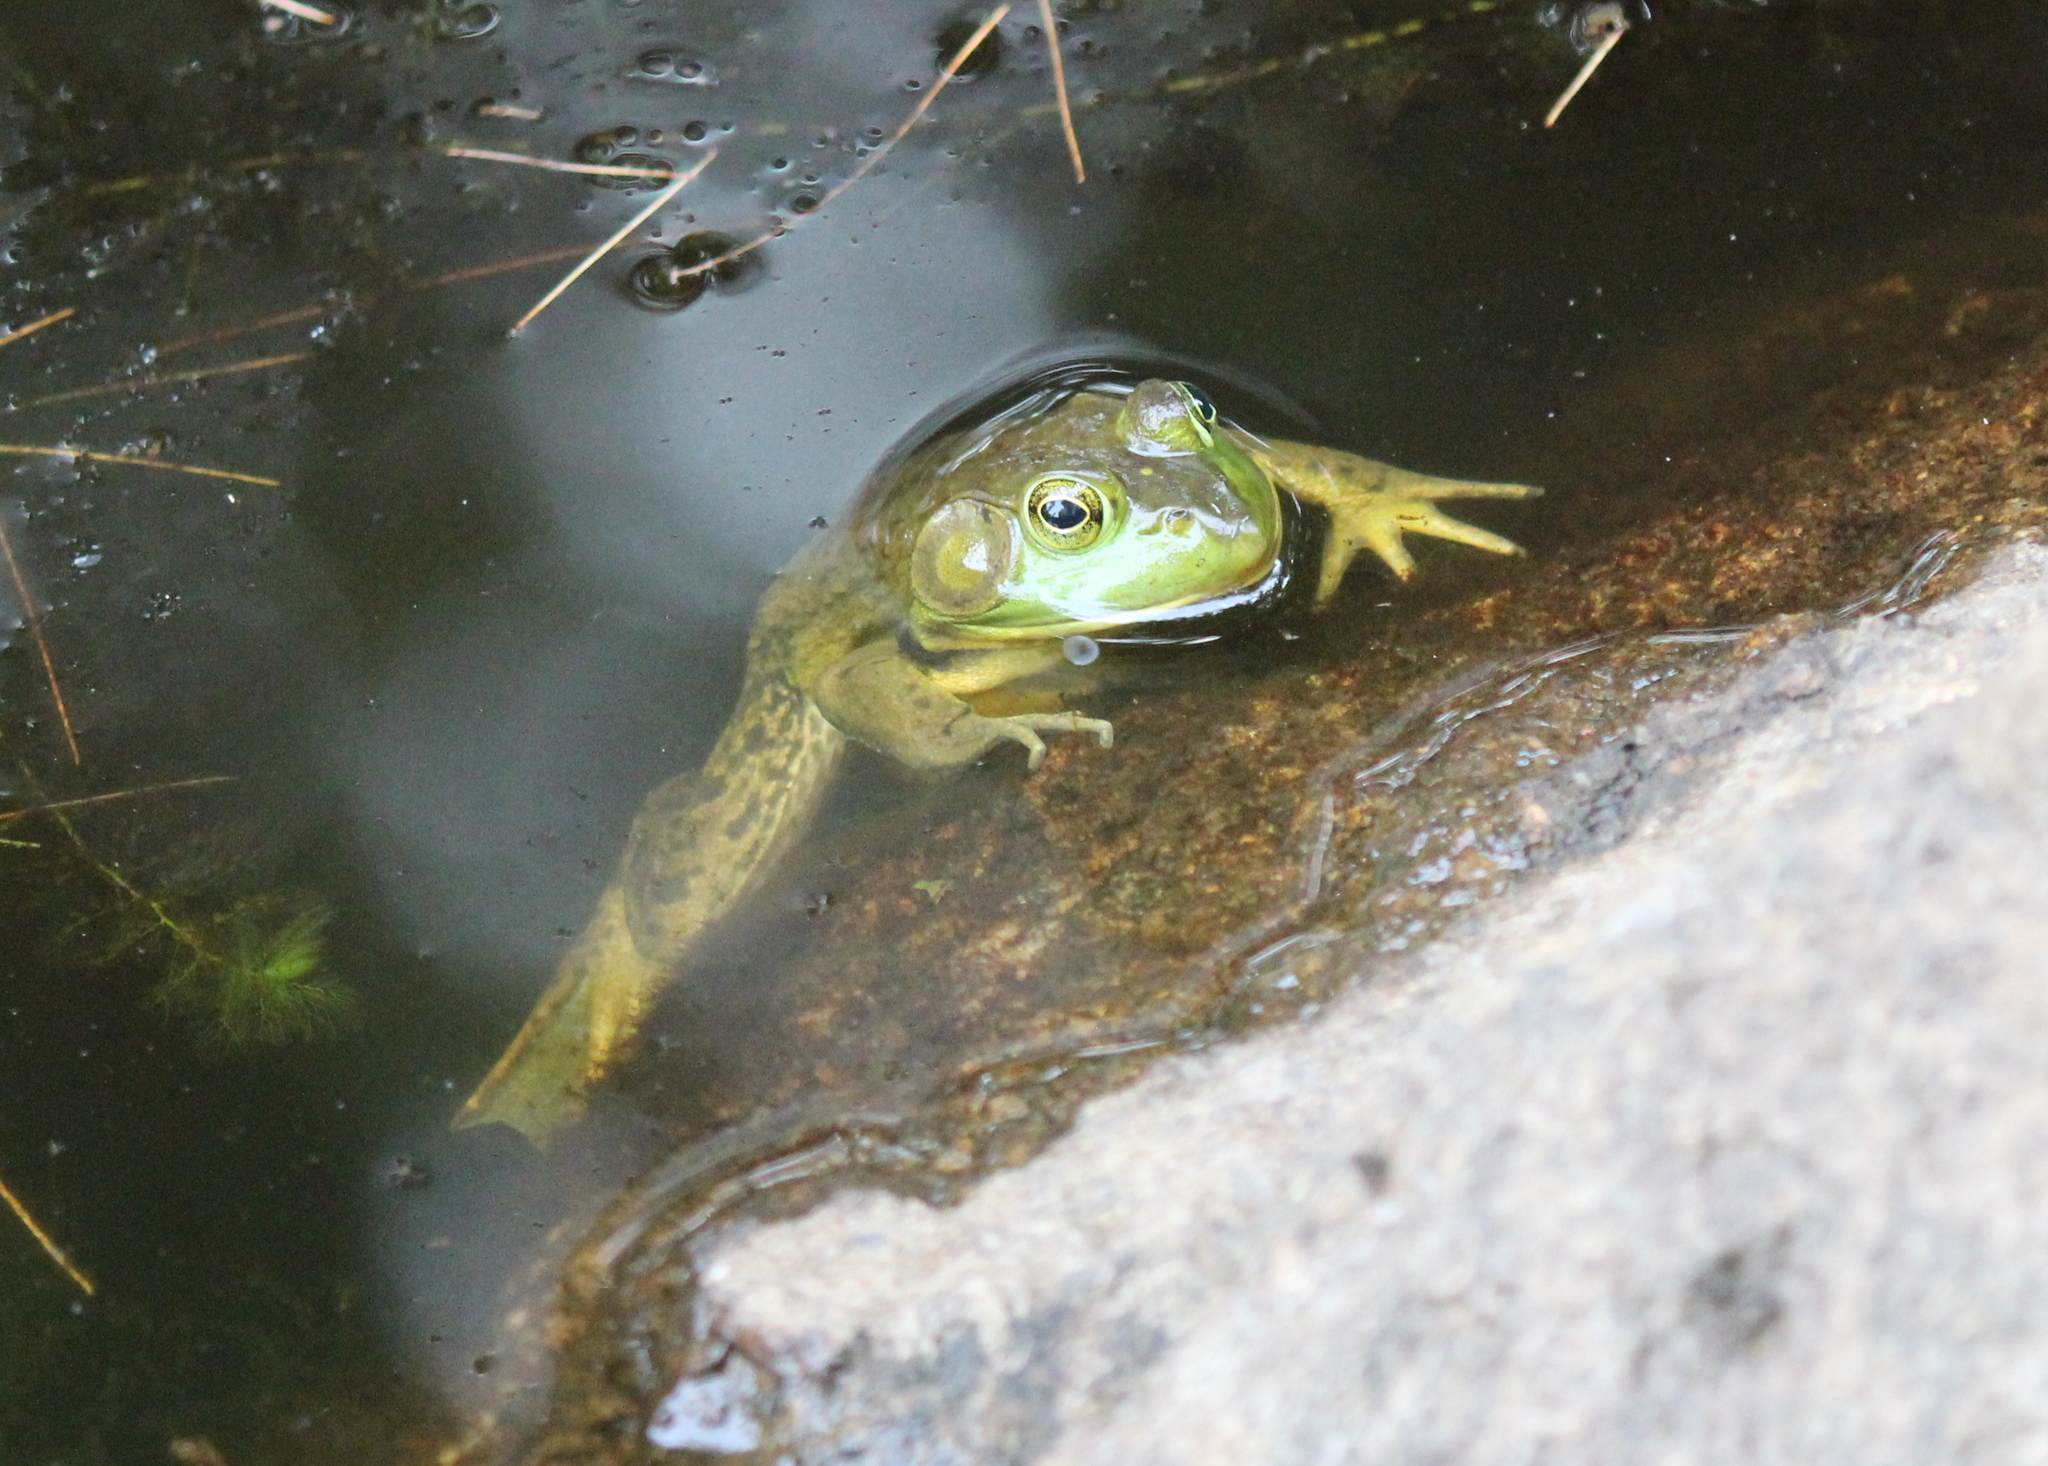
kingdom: Animalia
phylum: Chordata
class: Amphibia
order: Anura
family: Ranidae
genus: Lithobates
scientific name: Lithobates catesbeianus
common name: American bullfrog
